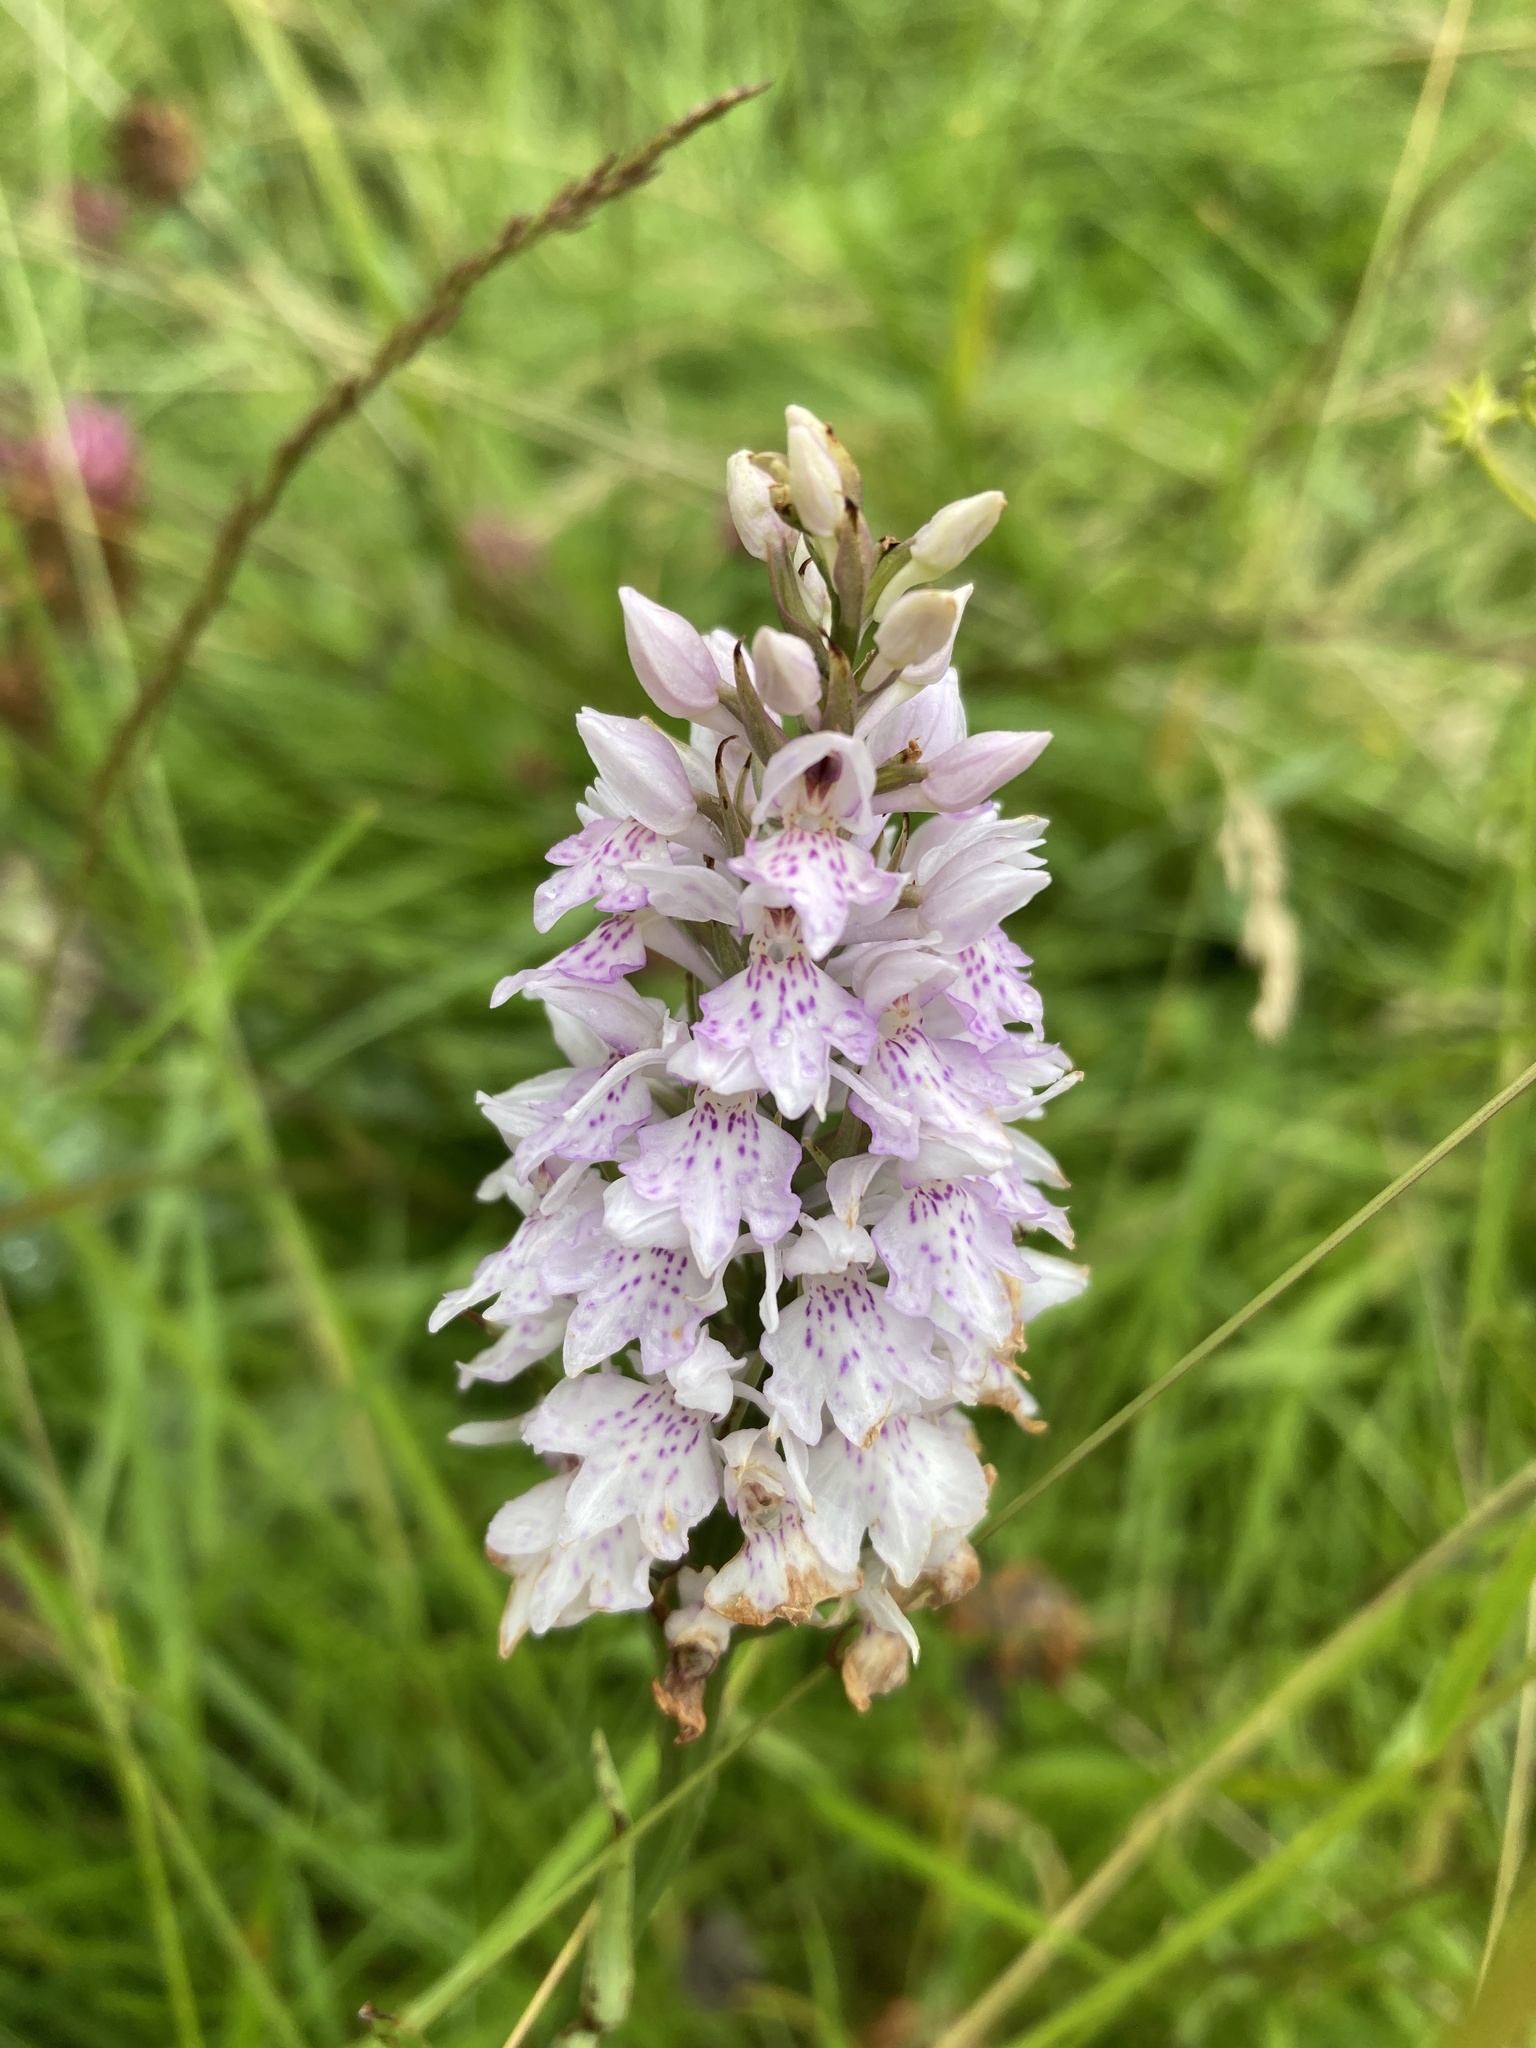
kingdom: Plantae
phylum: Tracheophyta
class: Liliopsida
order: Asparagales
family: Orchidaceae
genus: Dactylorhiza
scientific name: Dactylorhiza maculata
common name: Heath spotted-orchid
